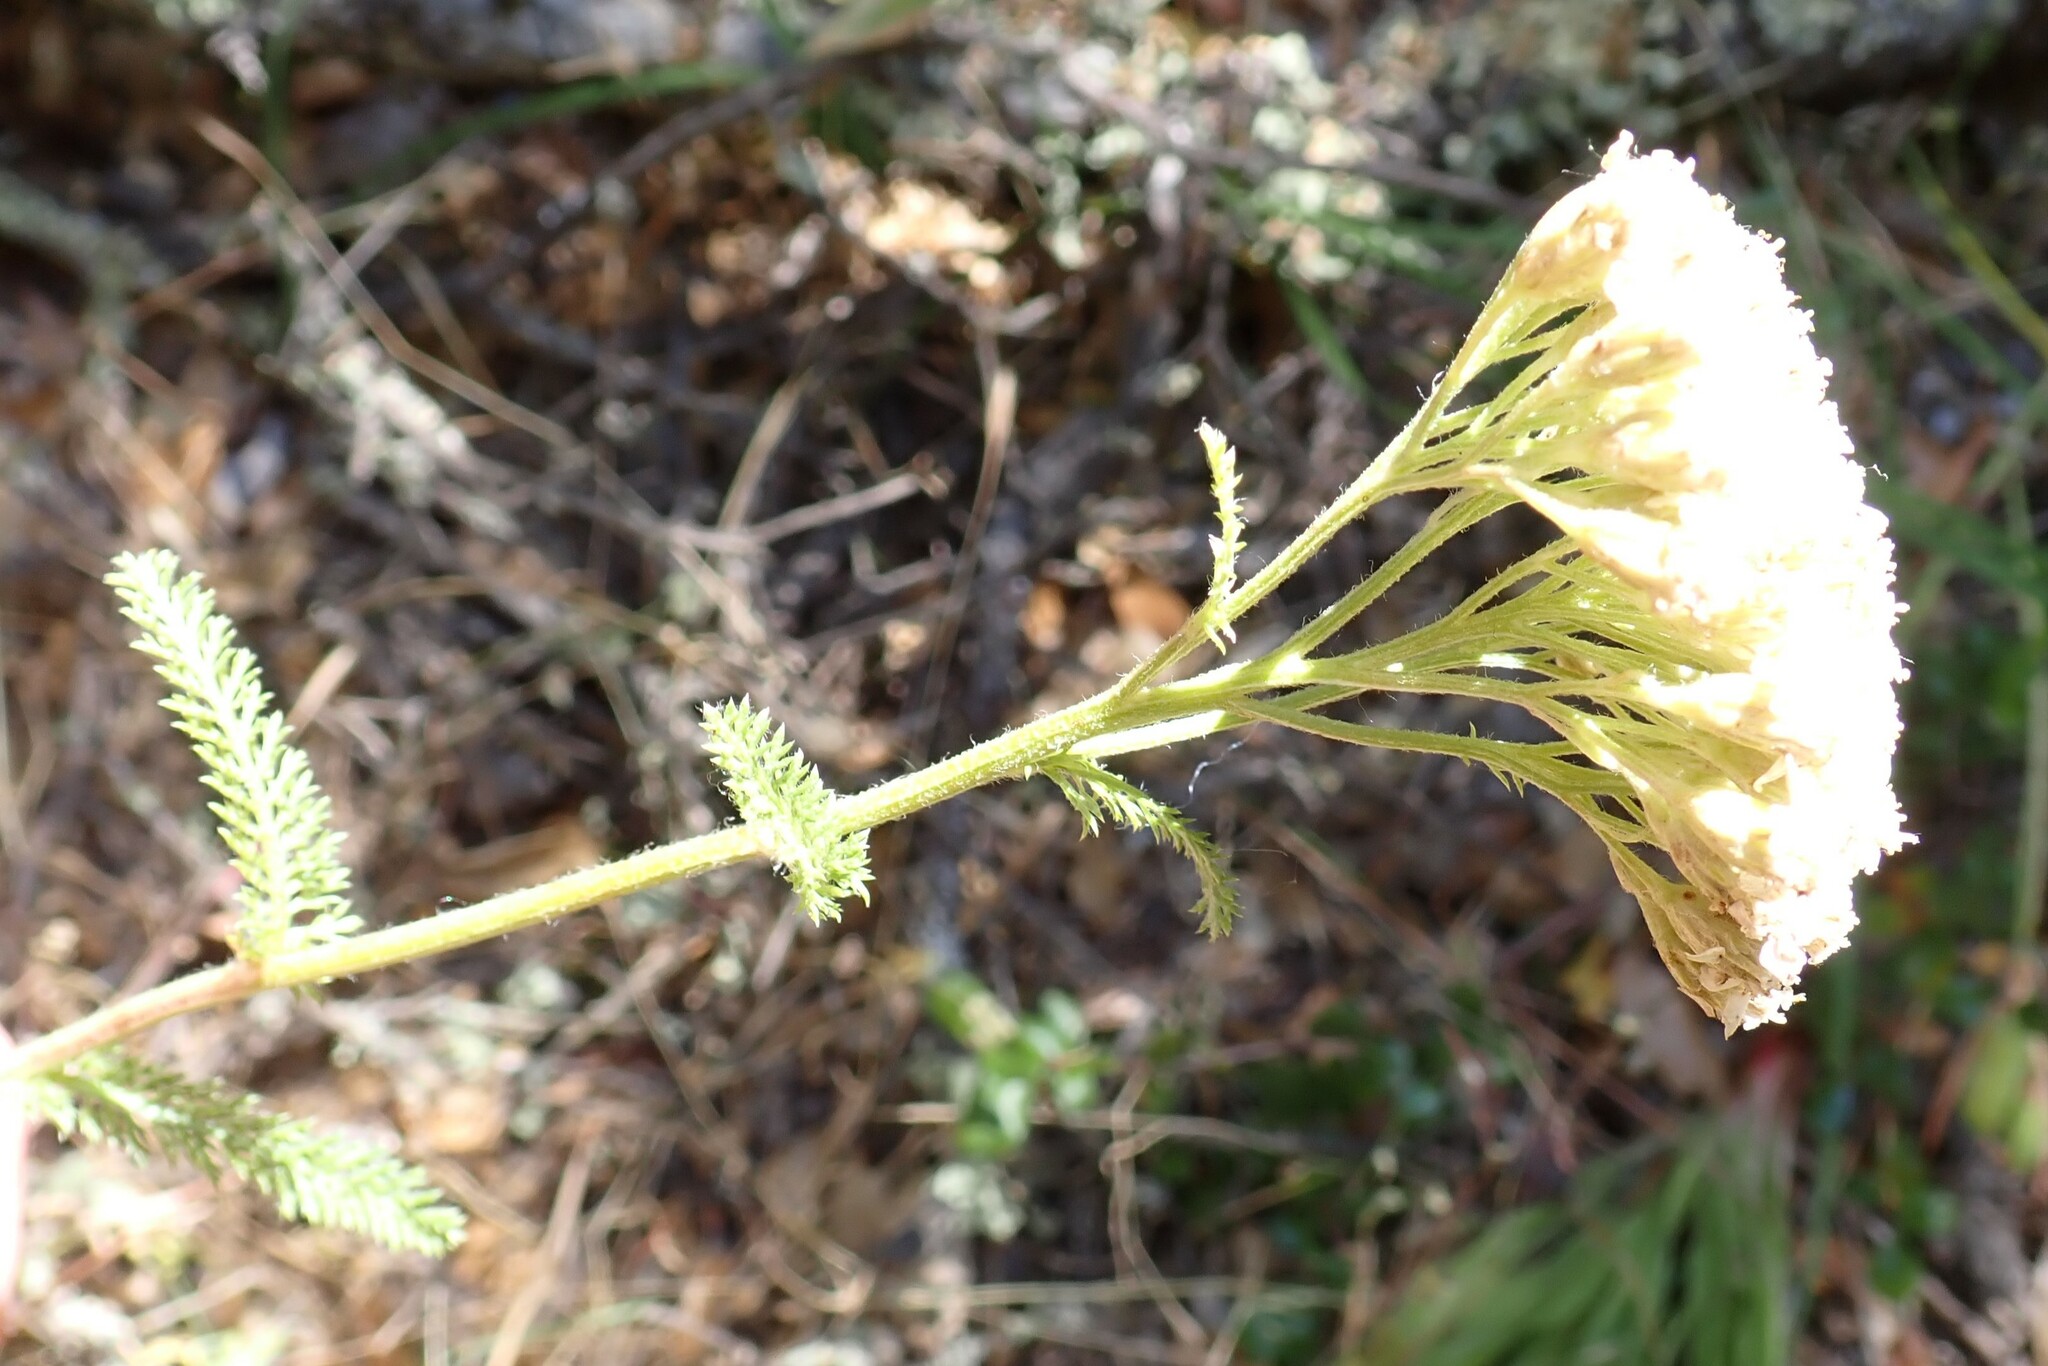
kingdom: Plantae
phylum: Tracheophyta
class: Magnoliopsida
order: Asterales
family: Asteraceae
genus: Achillea
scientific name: Achillea millefolium
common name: Yarrow
